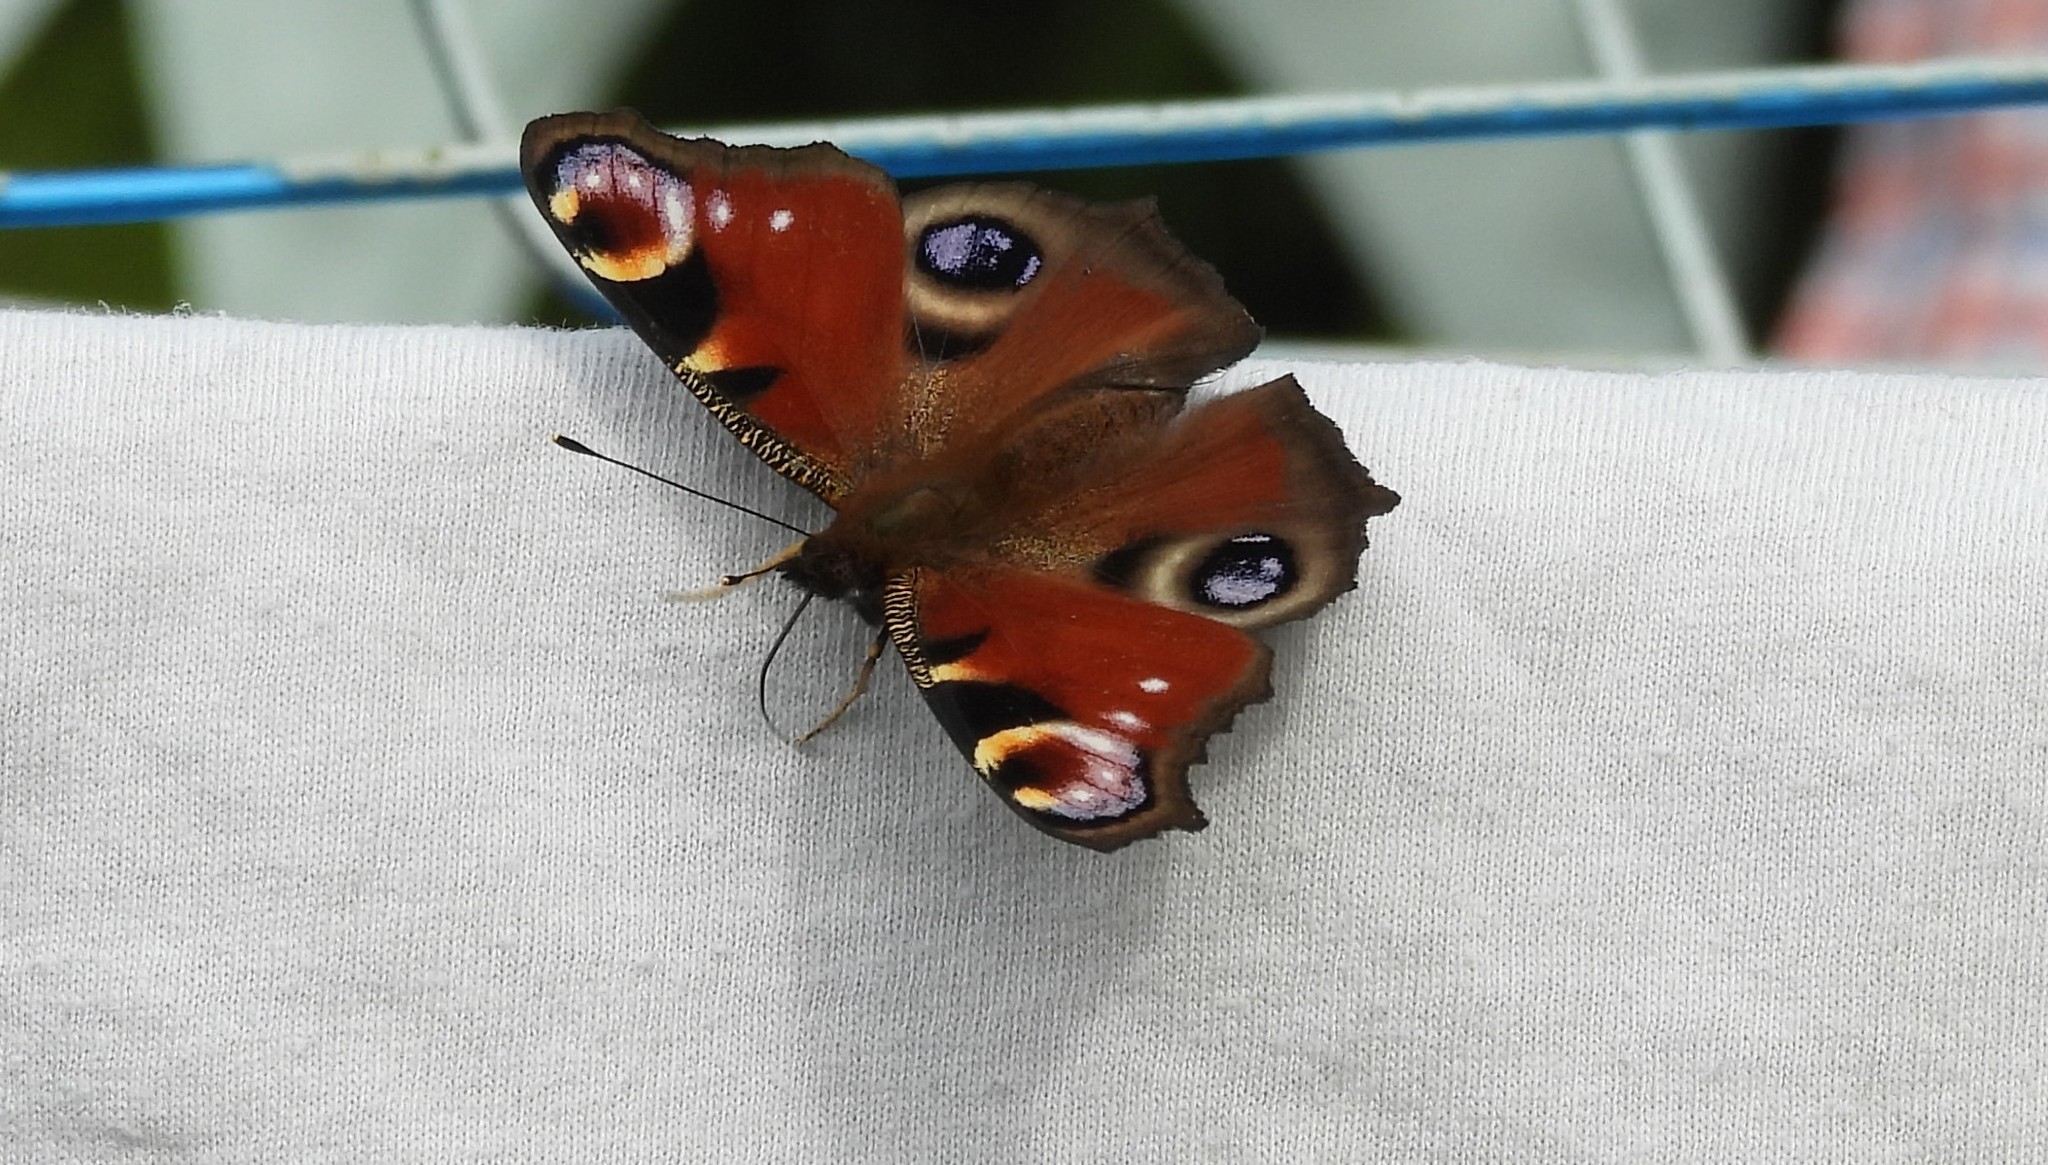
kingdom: Animalia
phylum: Arthropoda
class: Insecta
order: Lepidoptera
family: Nymphalidae
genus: Aglais
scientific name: Aglais io
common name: Peacock
